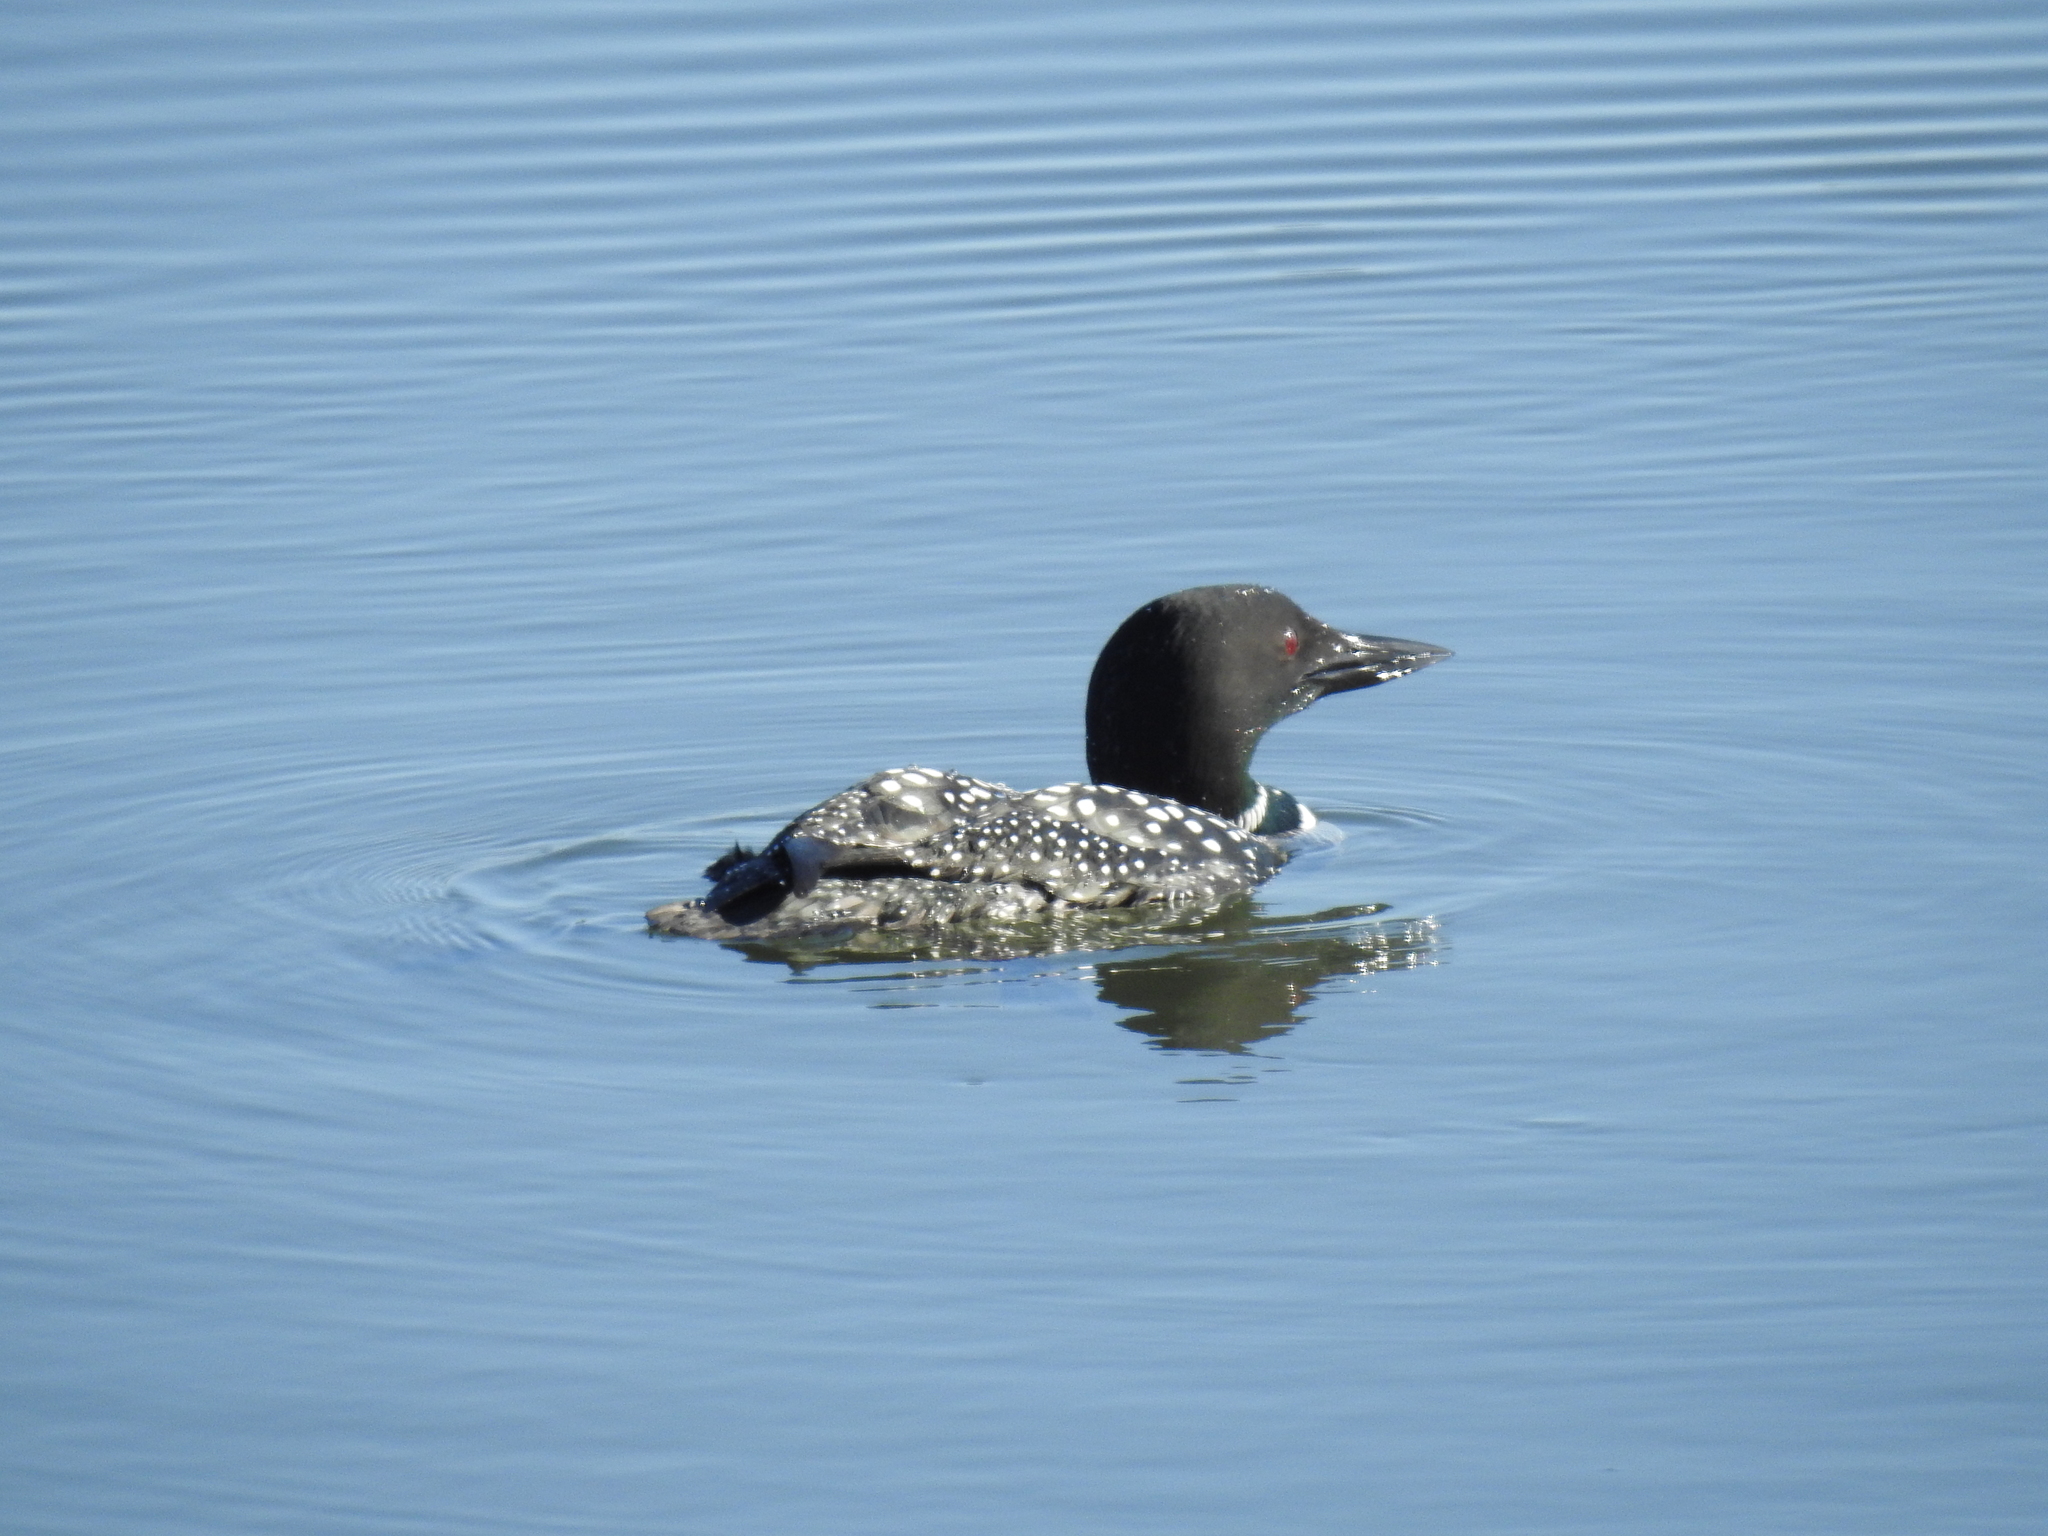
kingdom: Animalia
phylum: Chordata
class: Aves
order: Gaviiformes
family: Gaviidae
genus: Gavia
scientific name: Gavia immer
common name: Common loon
